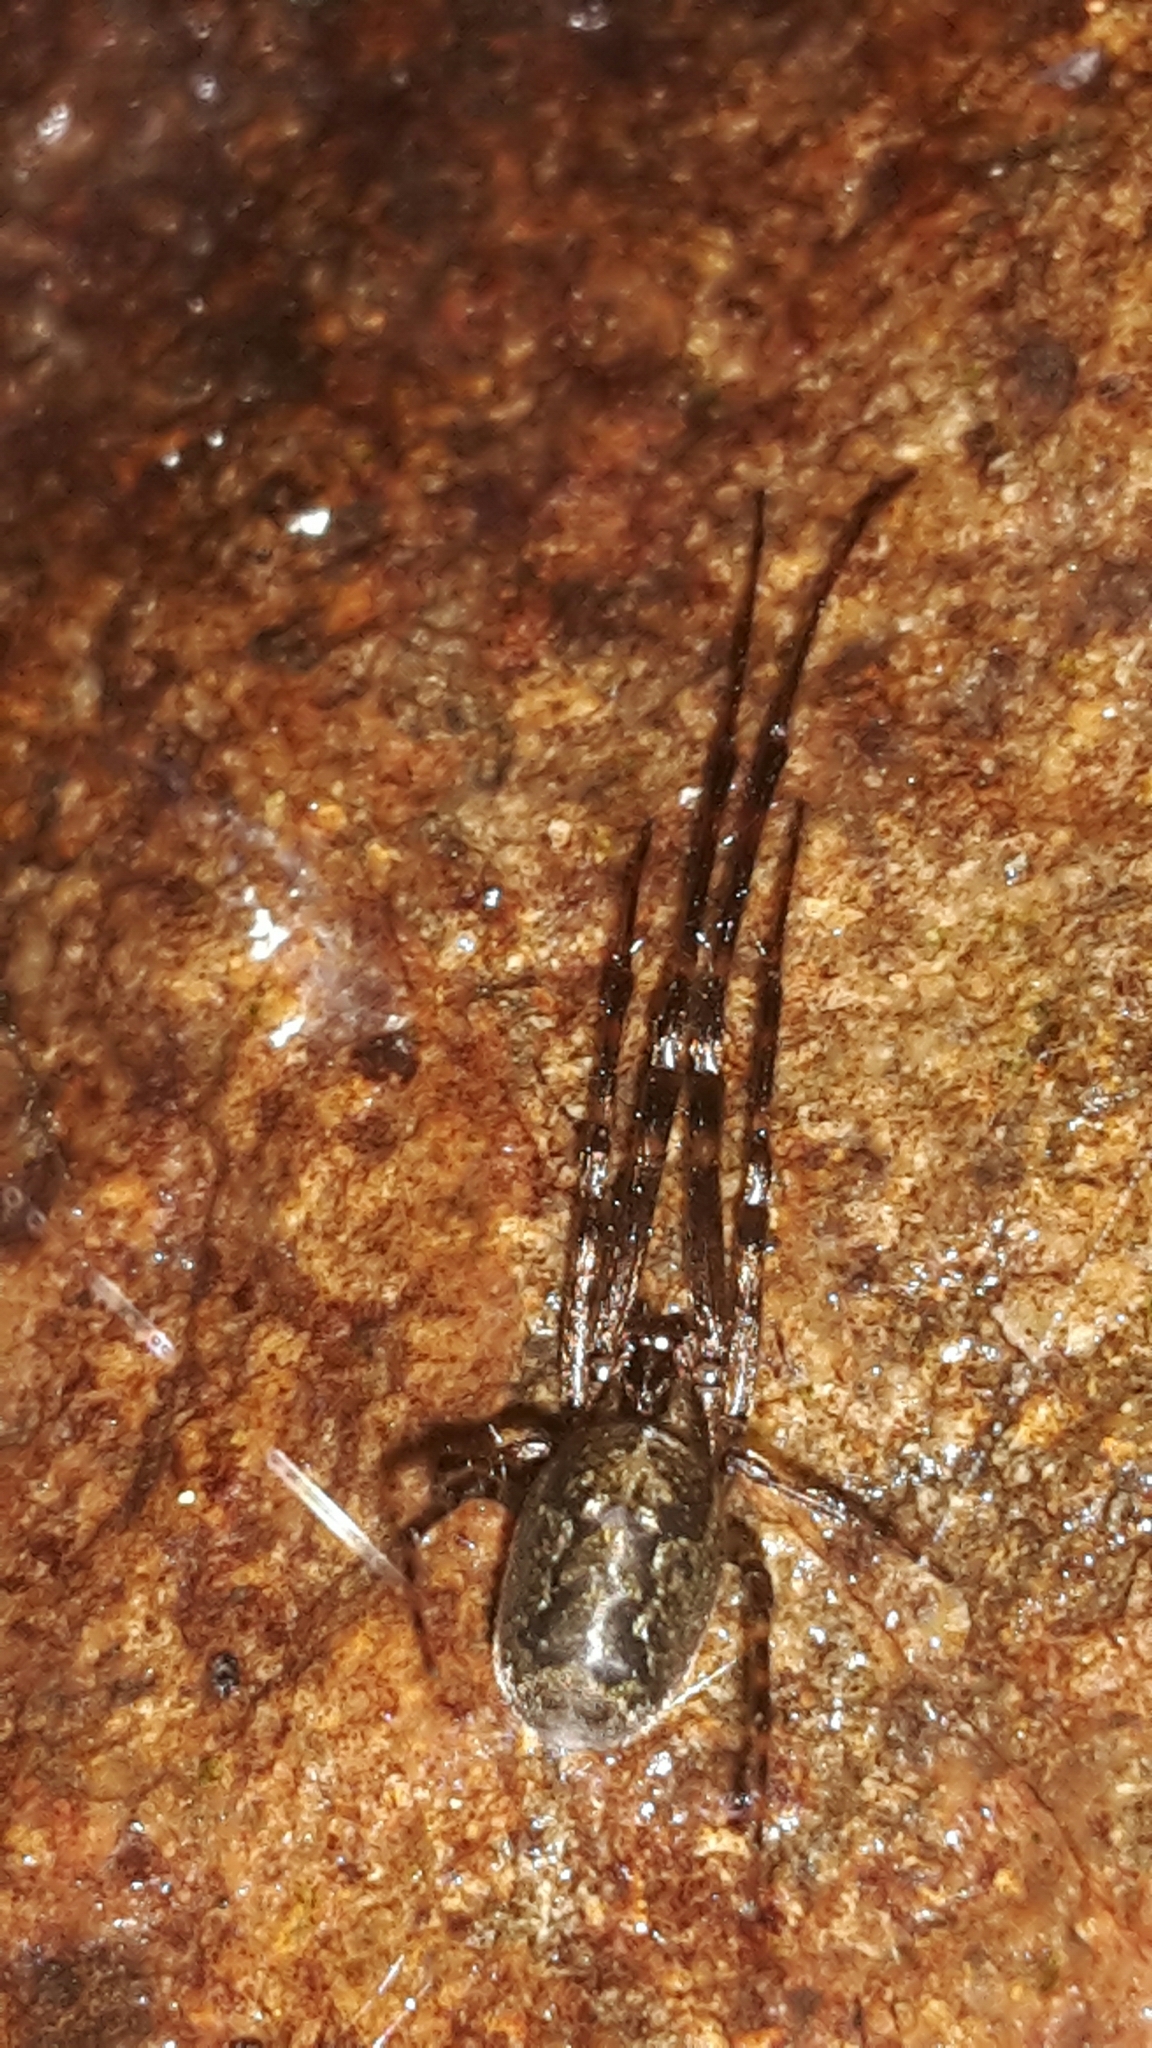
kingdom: Animalia
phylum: Arthropoda
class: Arachnida
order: Araneae
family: Tetragnathidae
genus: Nanometa
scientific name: Nanometa lagenifera
